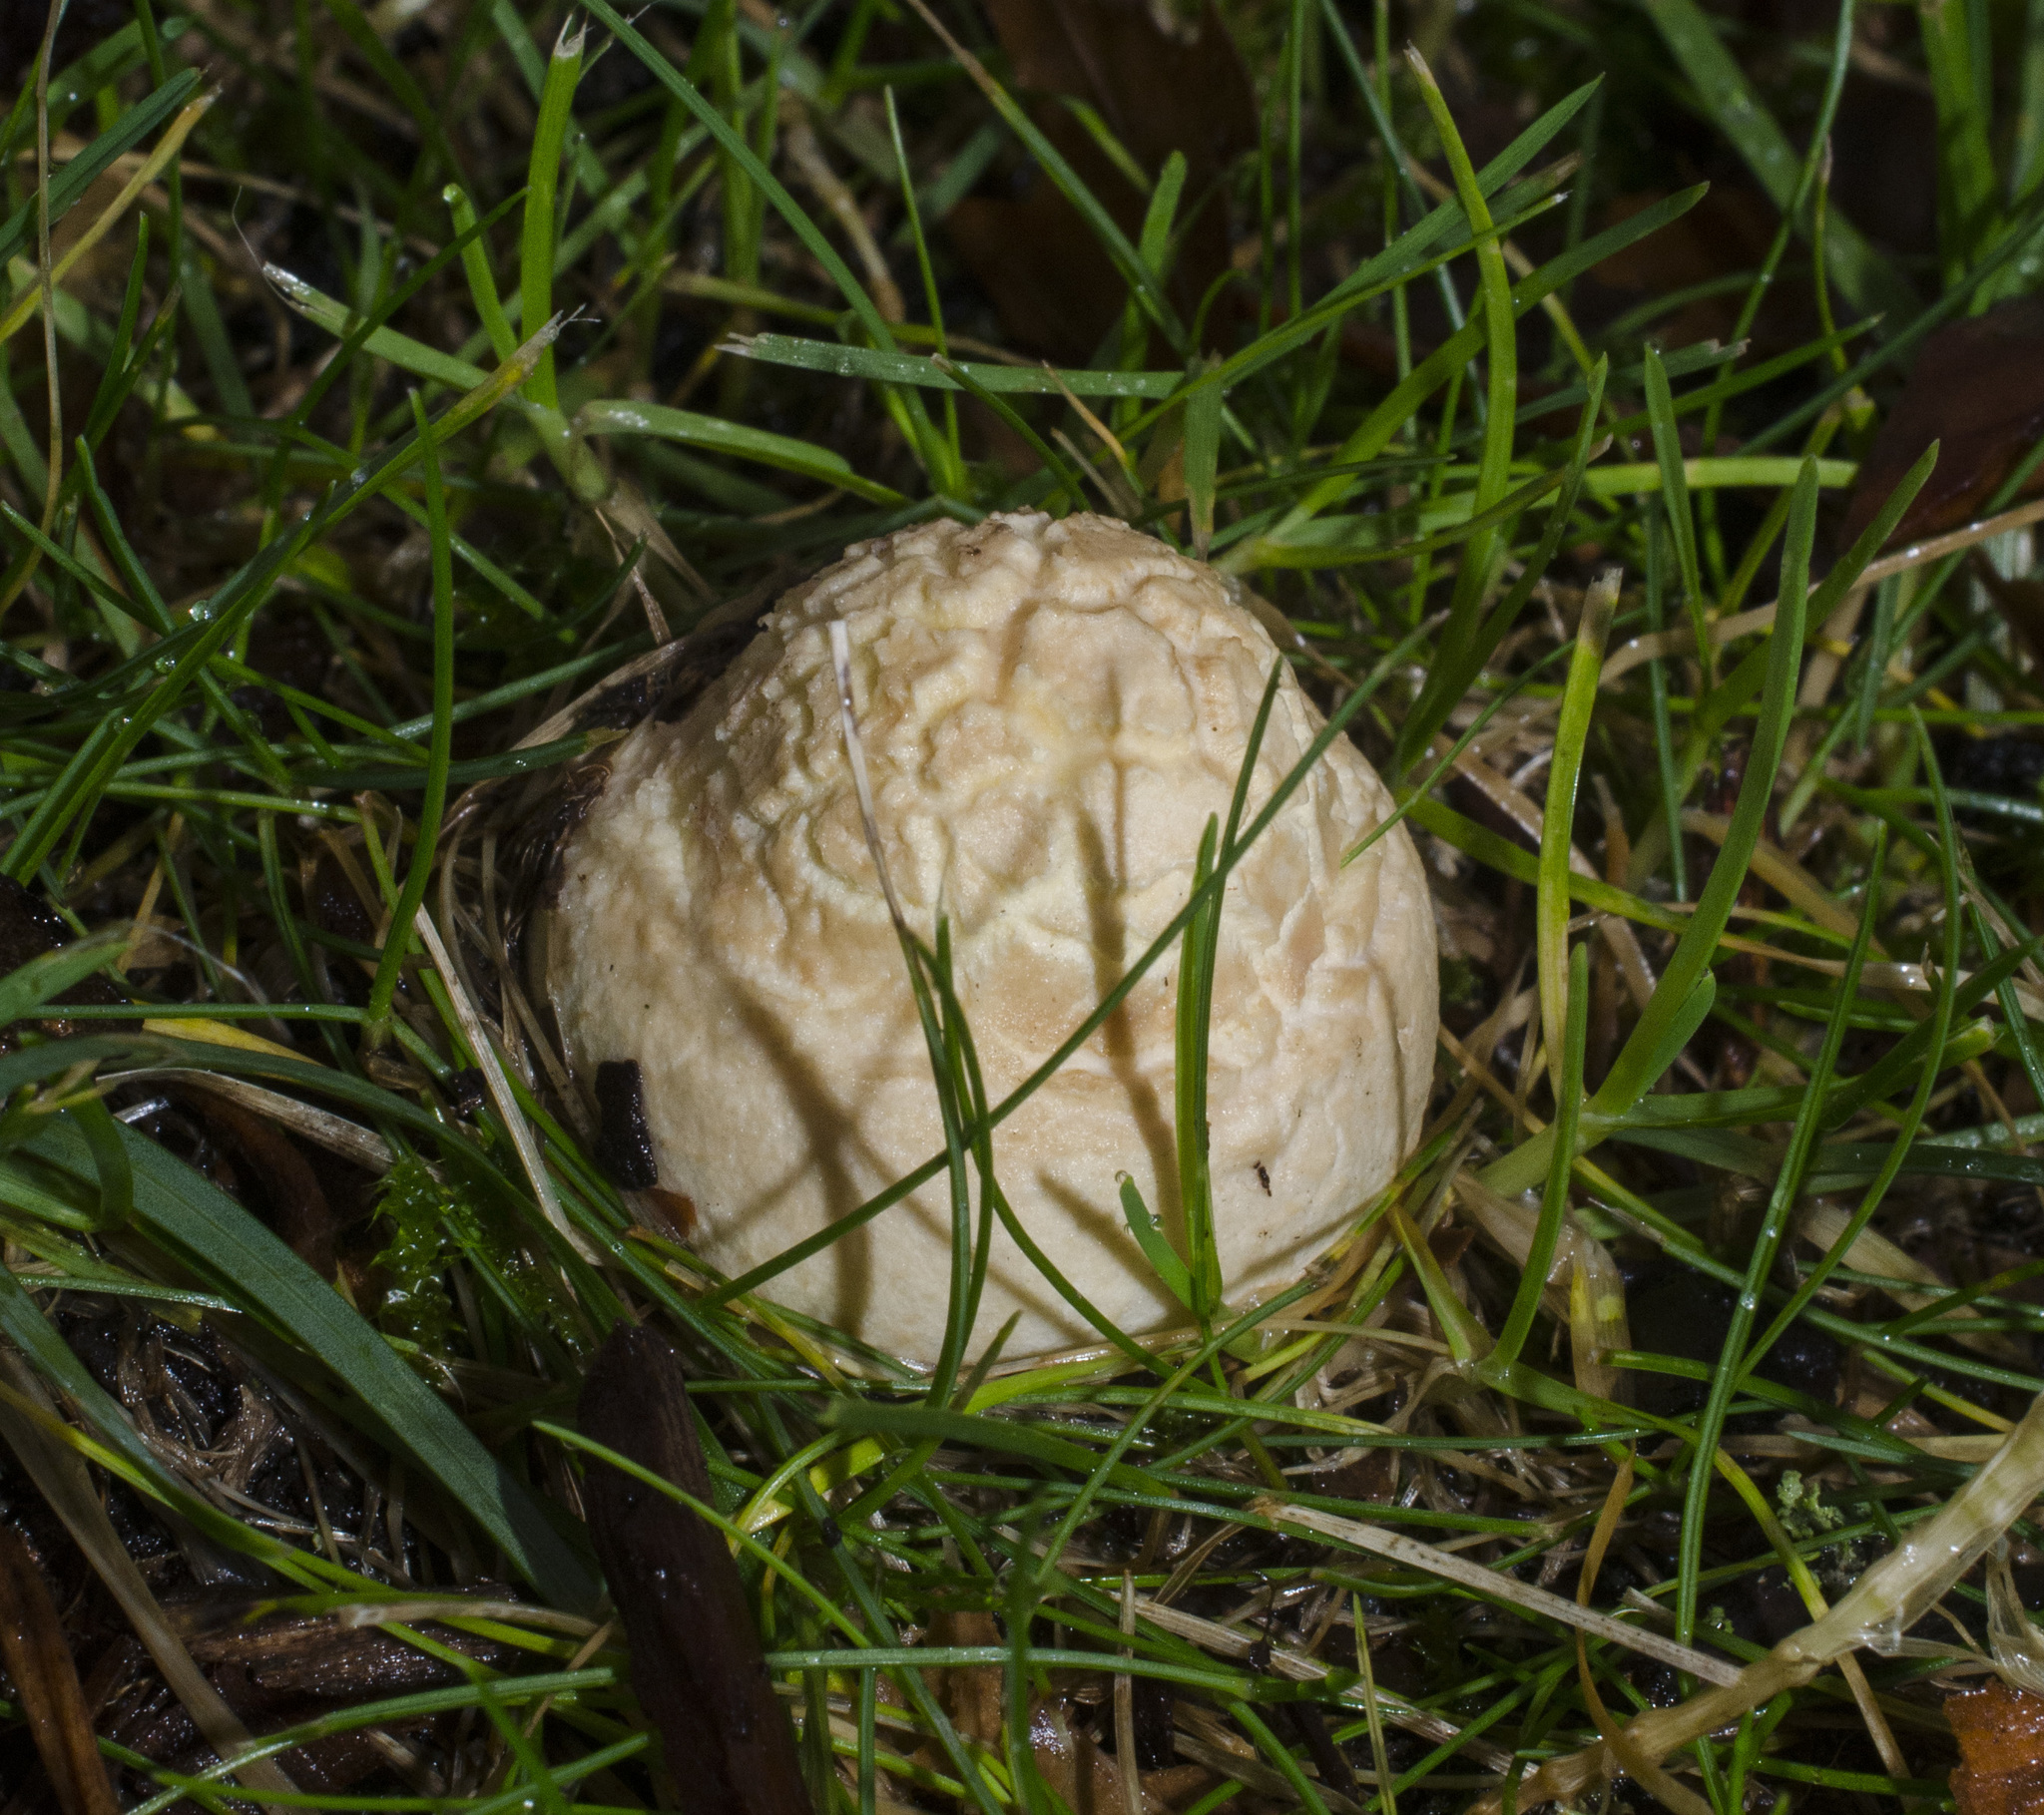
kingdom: Fungi
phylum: Basidiomycota
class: Agaricomycetes
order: Agaricales
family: Amanitaceae
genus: Amanita
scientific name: Amanita muscaria
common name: Fly agaric
